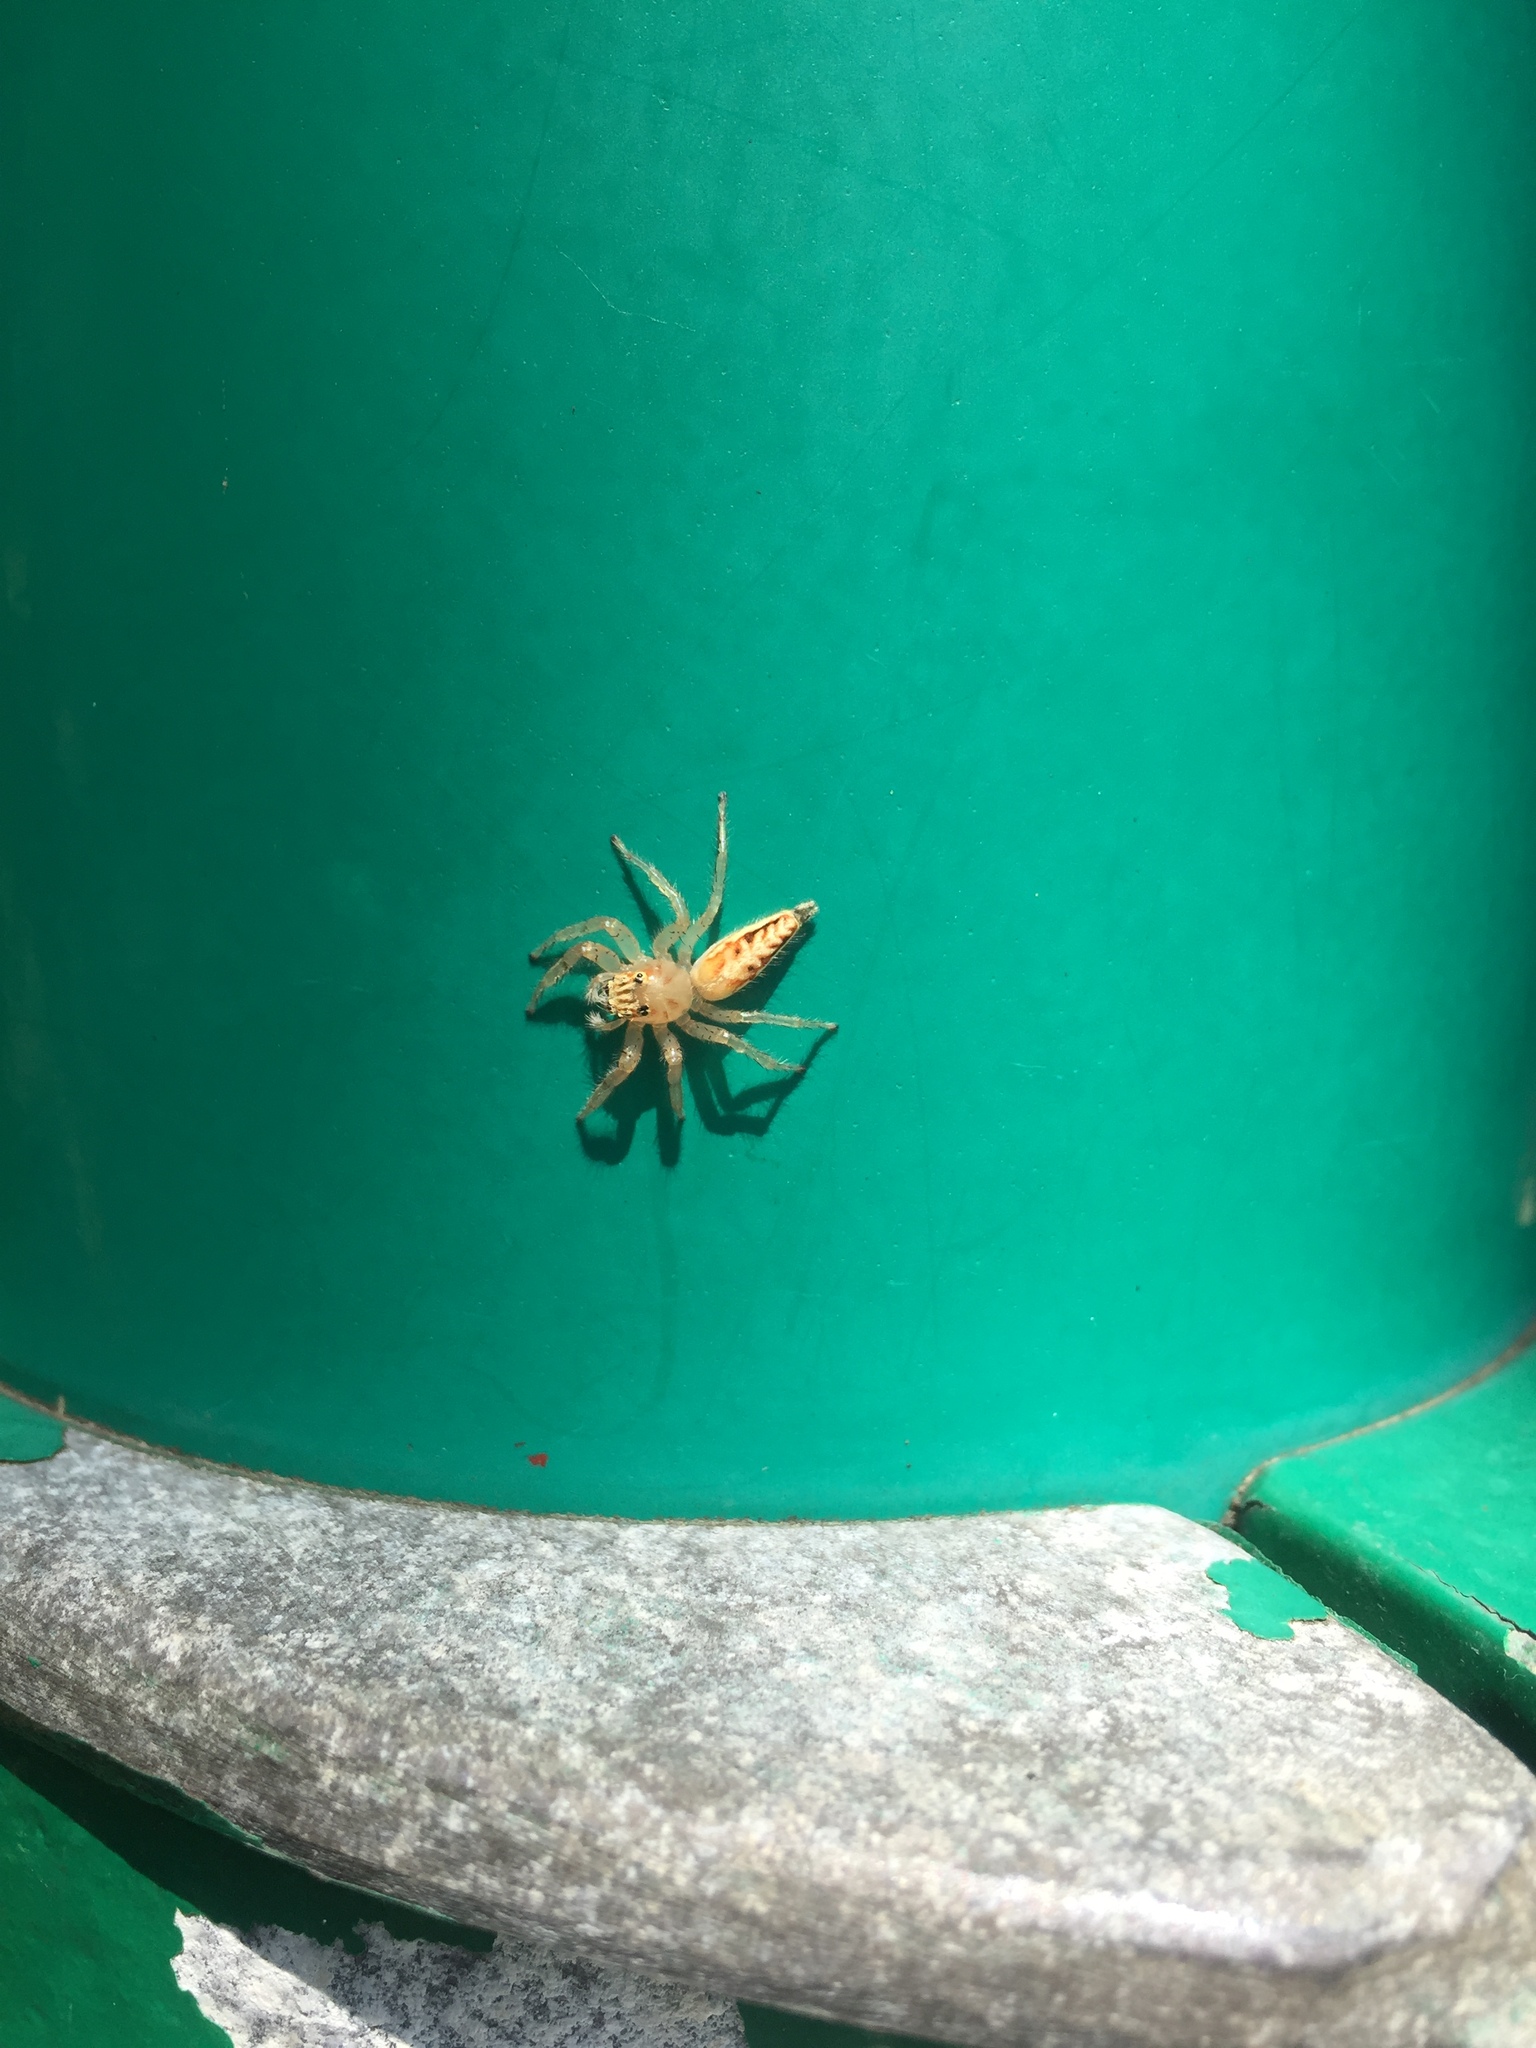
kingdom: Animalia
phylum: Arthropoda
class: Arachnida
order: Araneae
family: Salticidae
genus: Telamonia
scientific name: Telamonia festiva
